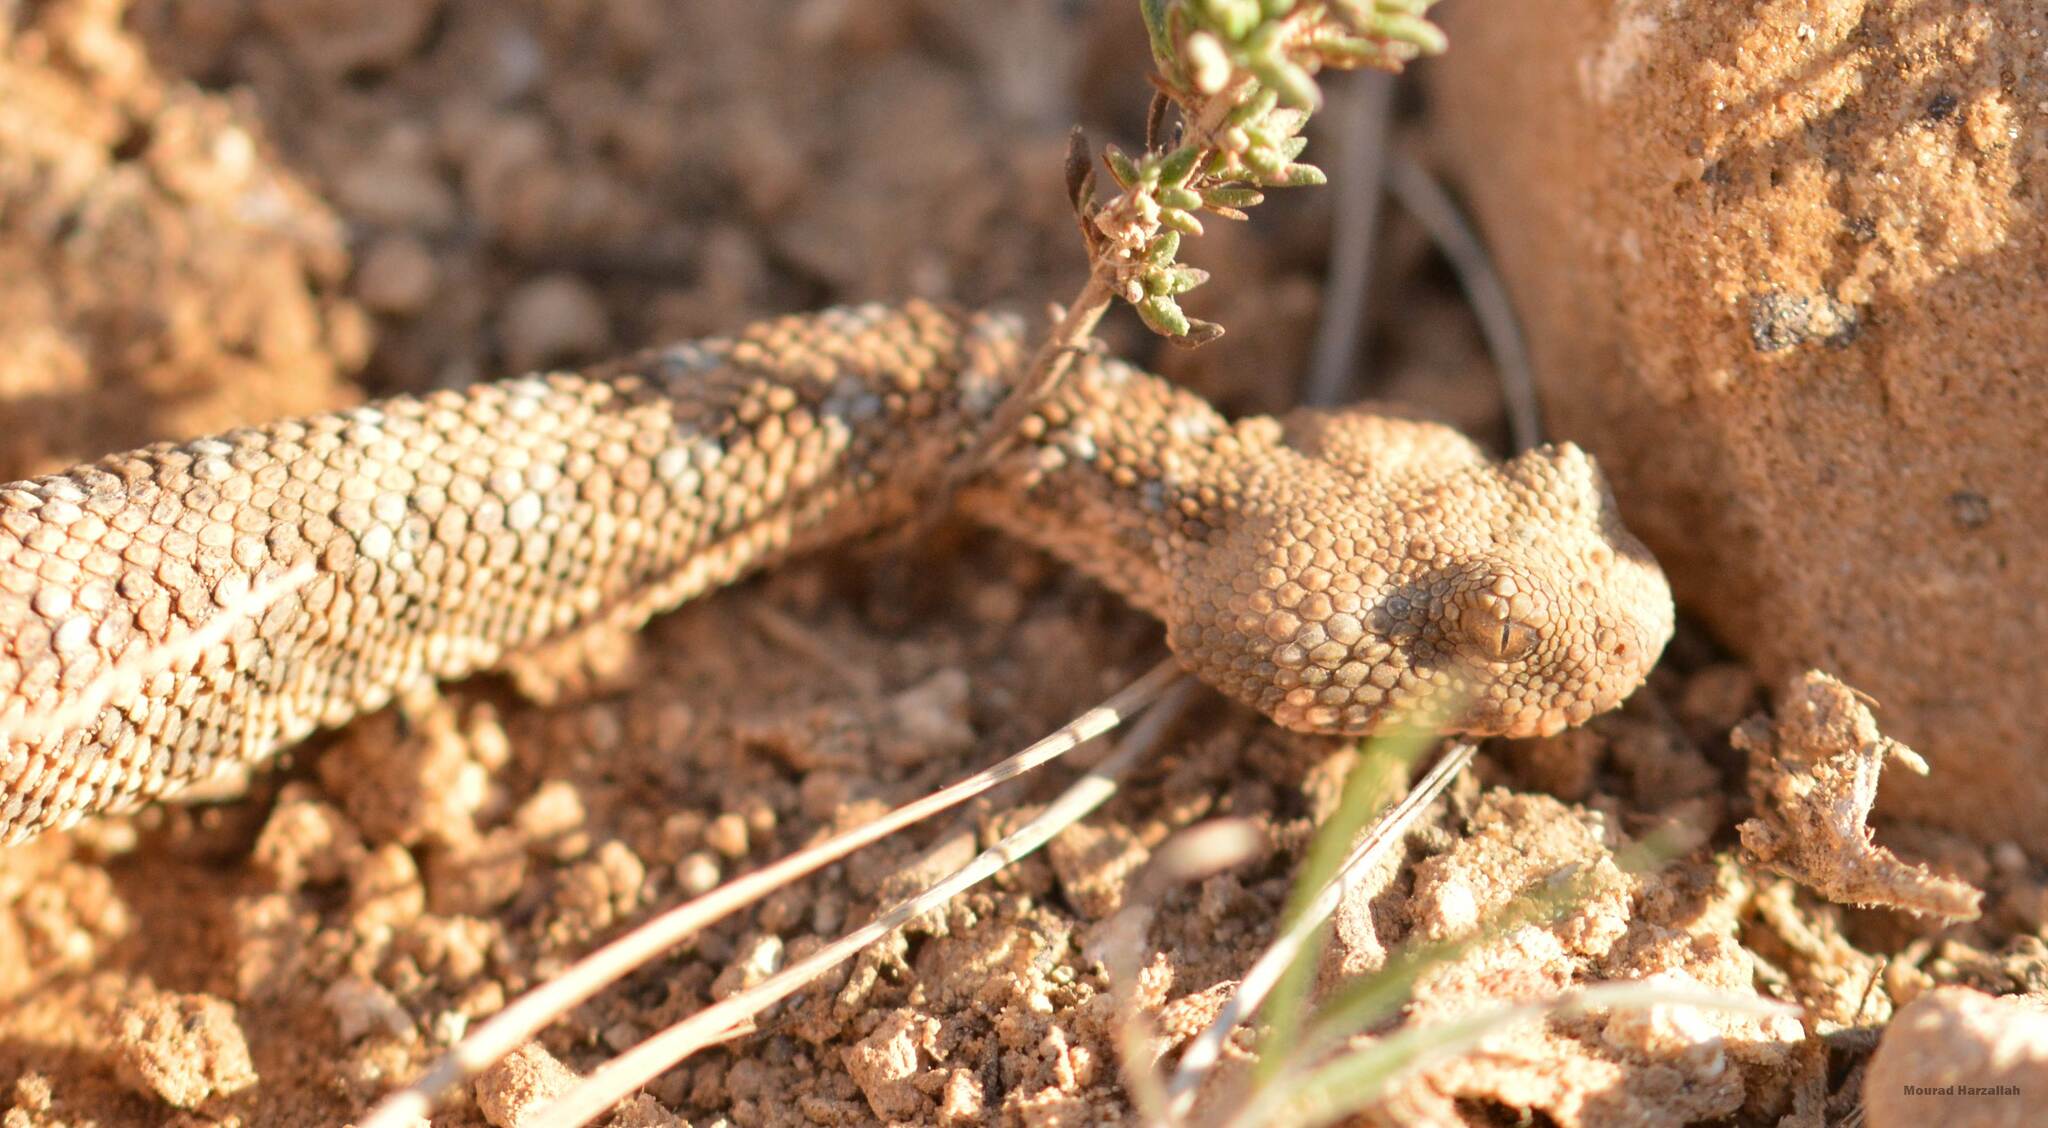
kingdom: Animalia
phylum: Chordata
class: Squamata
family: Viperidae
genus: Cerastes
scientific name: Cerastes cerastes
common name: Desert horned viper
